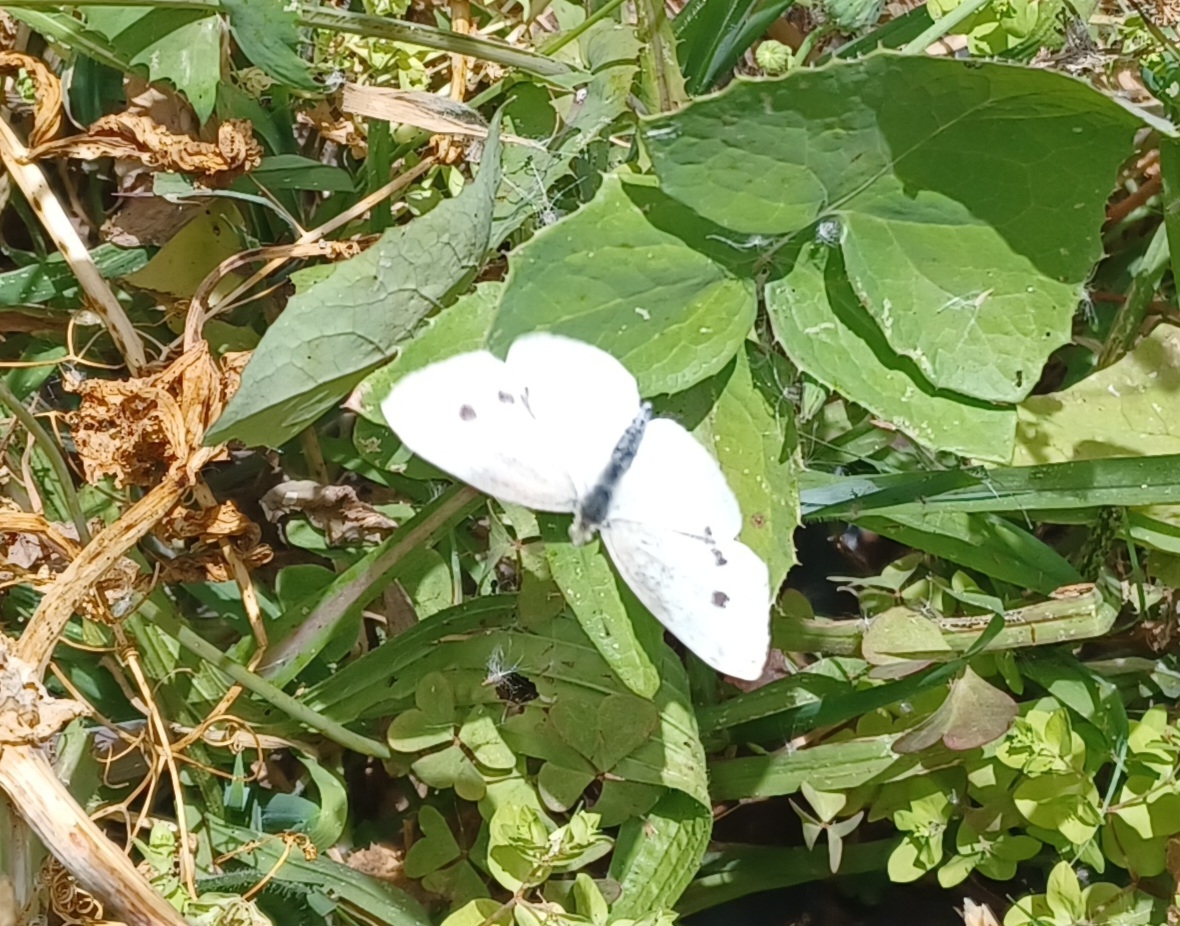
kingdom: Animalia
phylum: Arthropoda
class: Insecta
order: Lepidoptera
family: Pieridae
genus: Pieris
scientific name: Pieris rapae
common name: Small white
